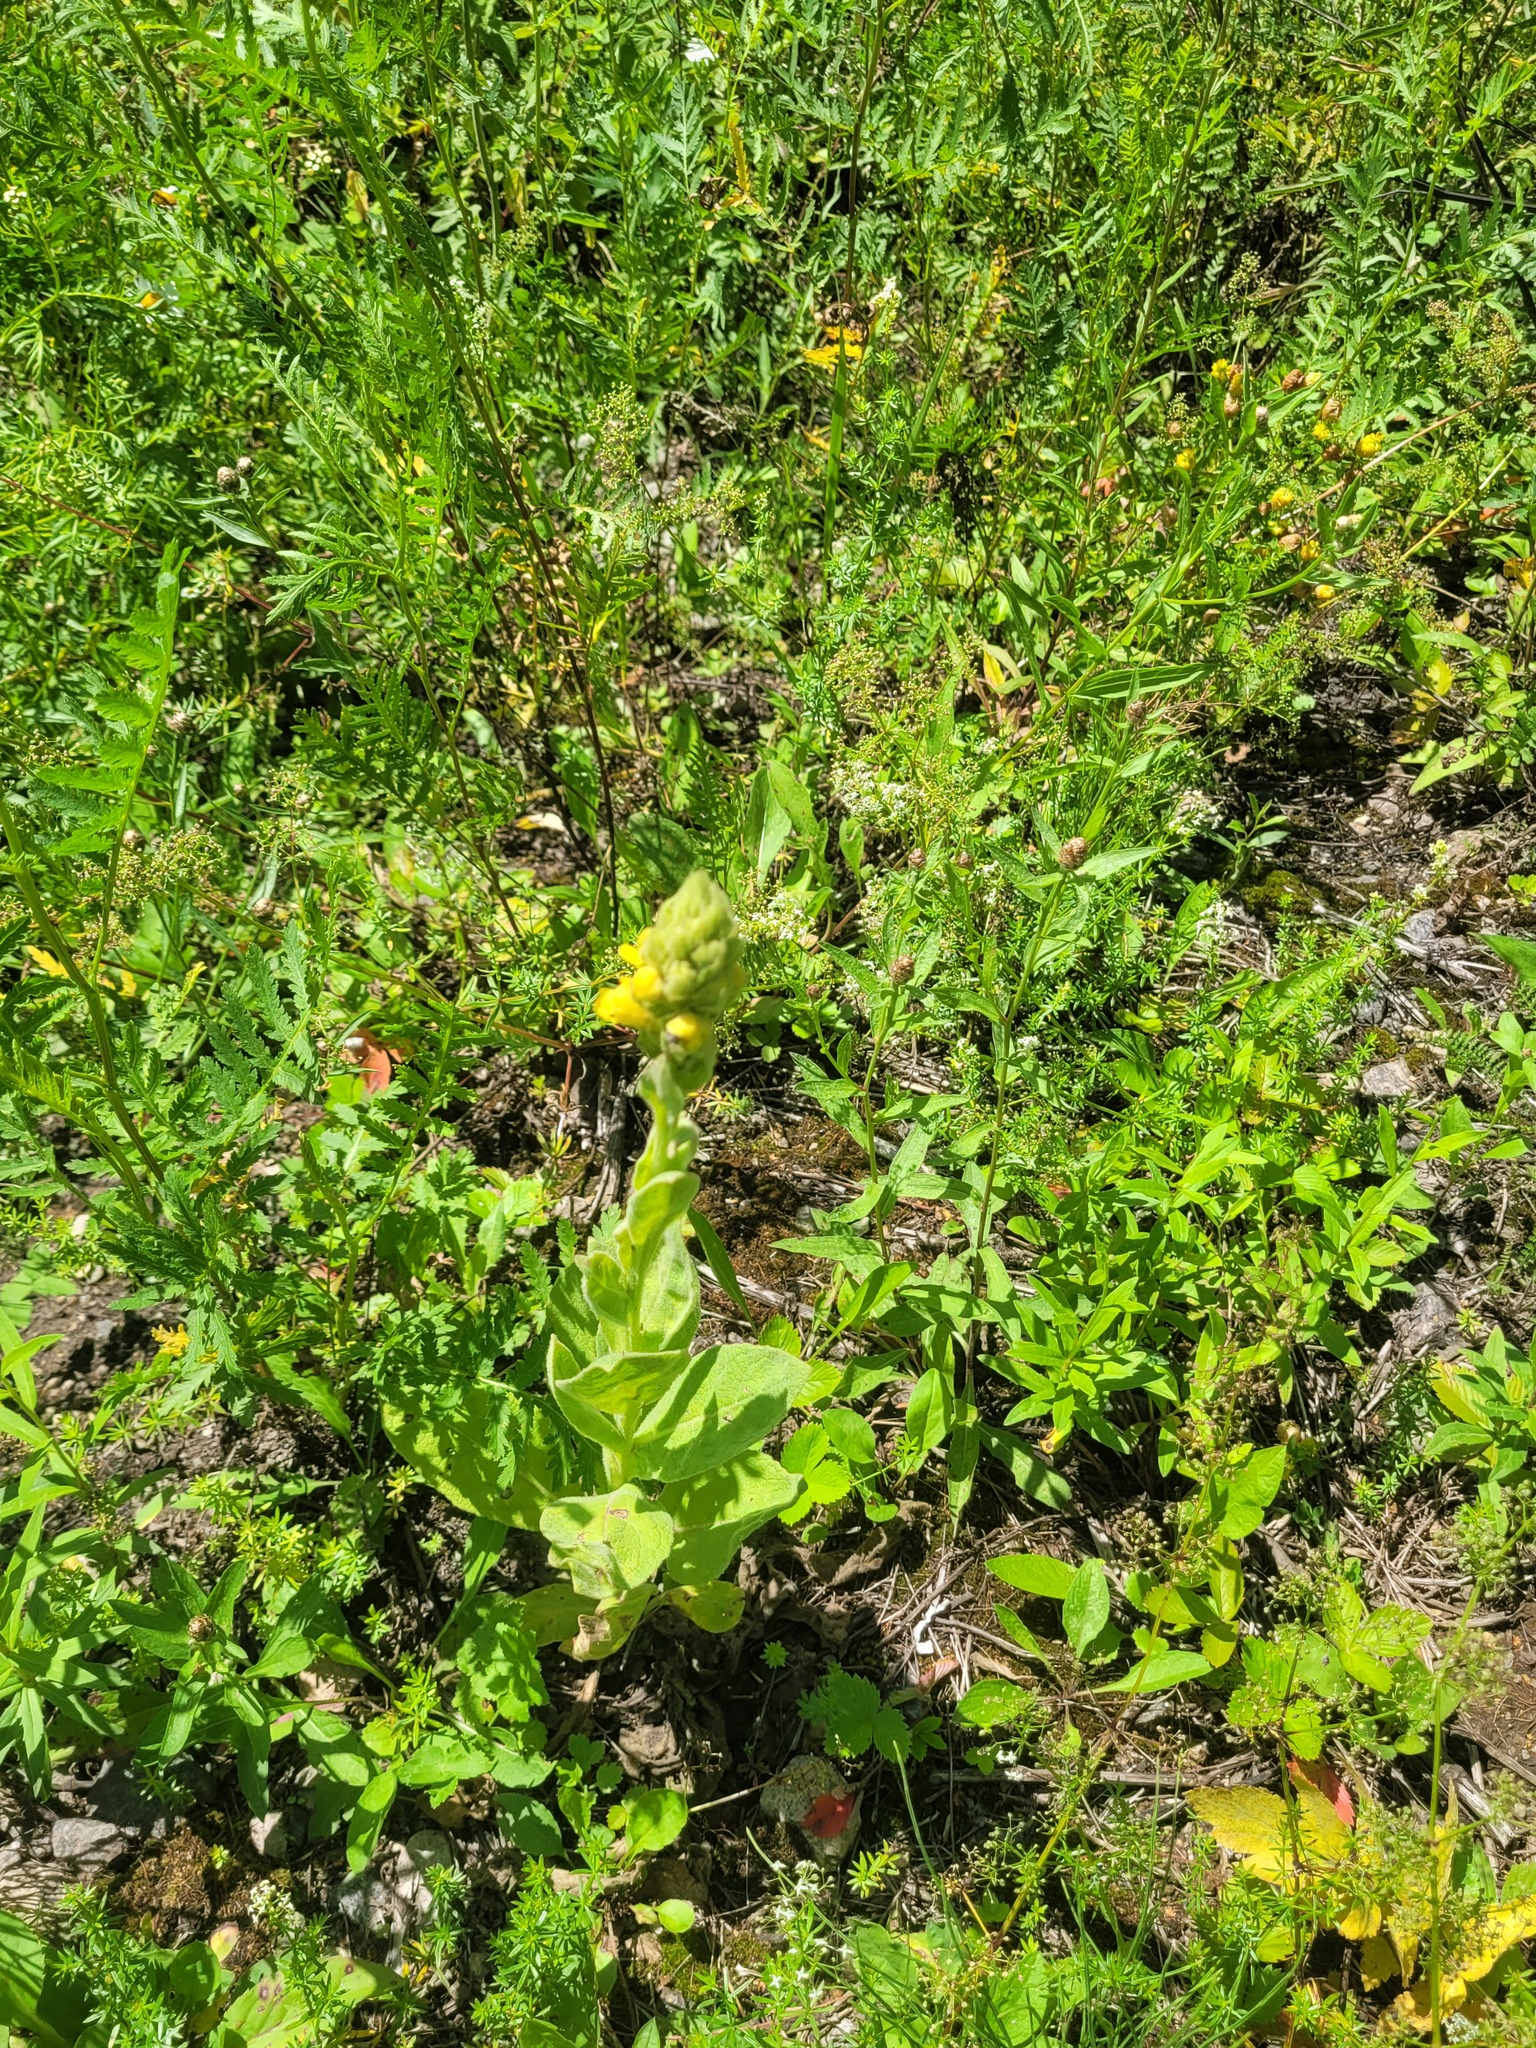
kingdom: Plantae
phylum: Tracheophyta
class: Magnoliopsida
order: Lamiales
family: Scrophulariaceae
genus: Verbascum
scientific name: Verbascum thapsus
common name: Common mullein
